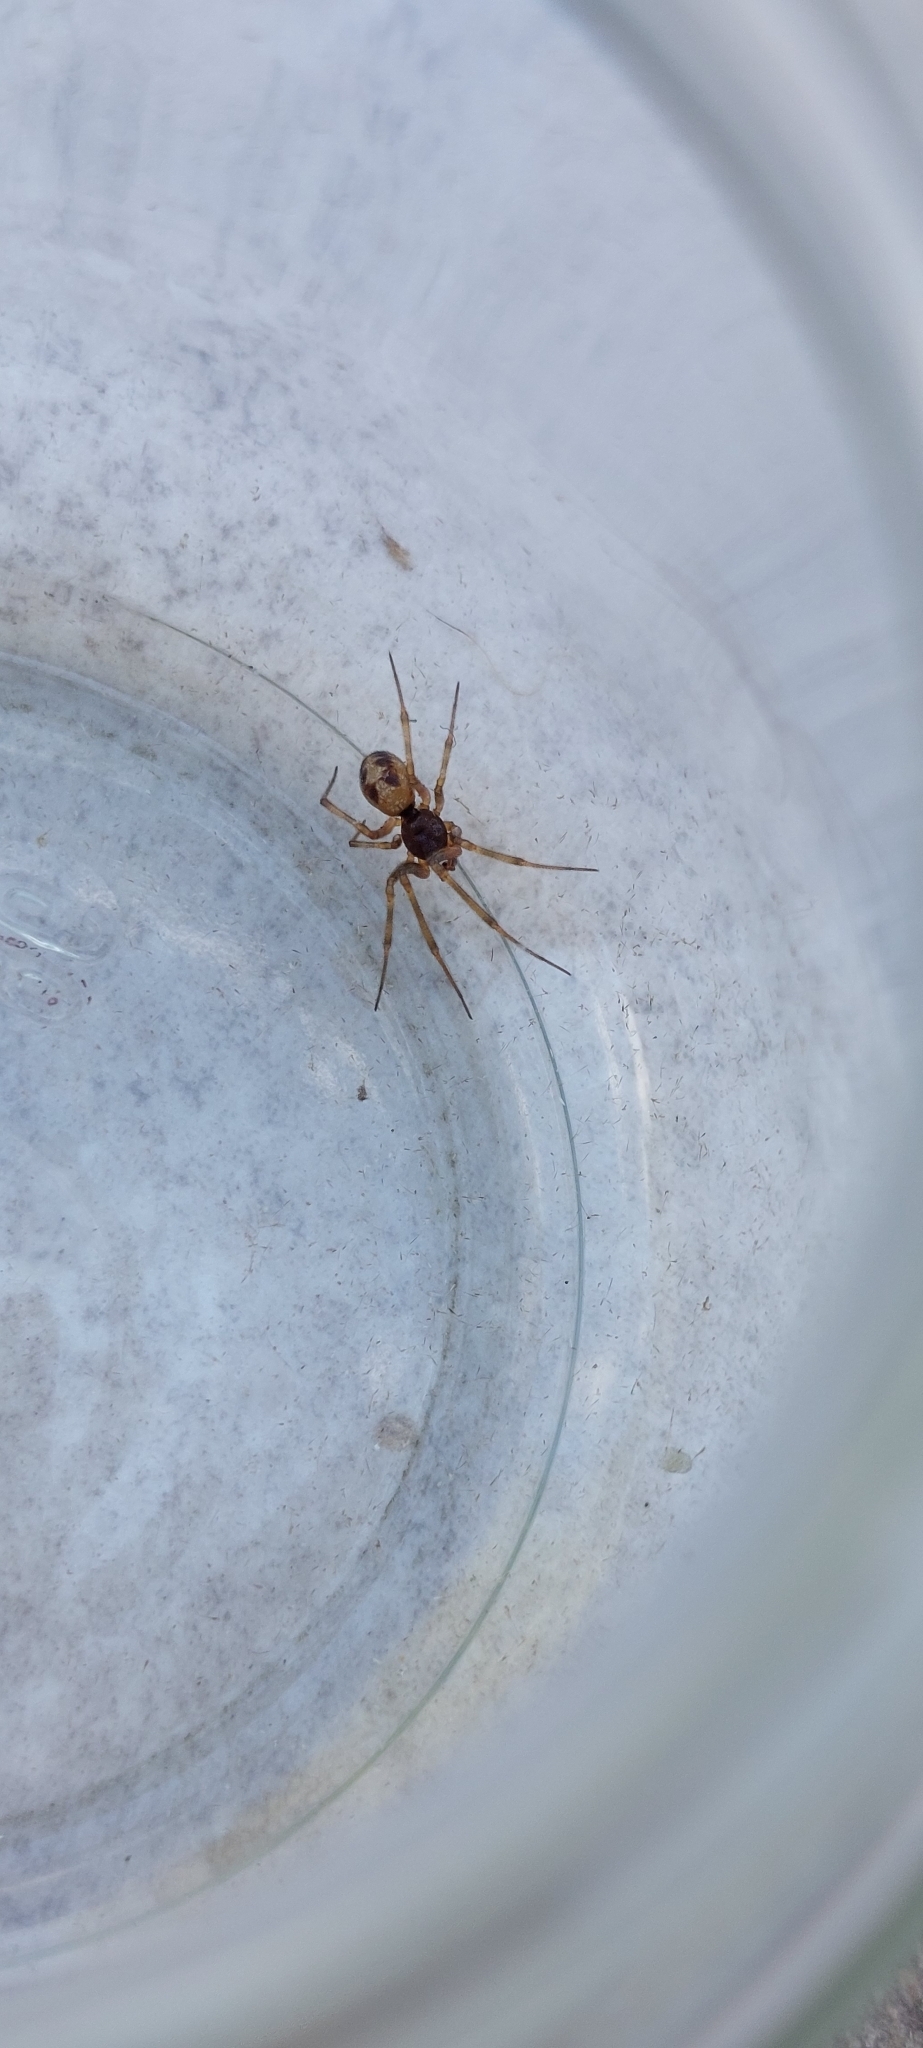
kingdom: Animalia
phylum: Arthropoda
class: Arachnida
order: Araneae
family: Theridiidae
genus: Steatoda
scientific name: Steatoda triangulosa
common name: Triangulate bud spider
